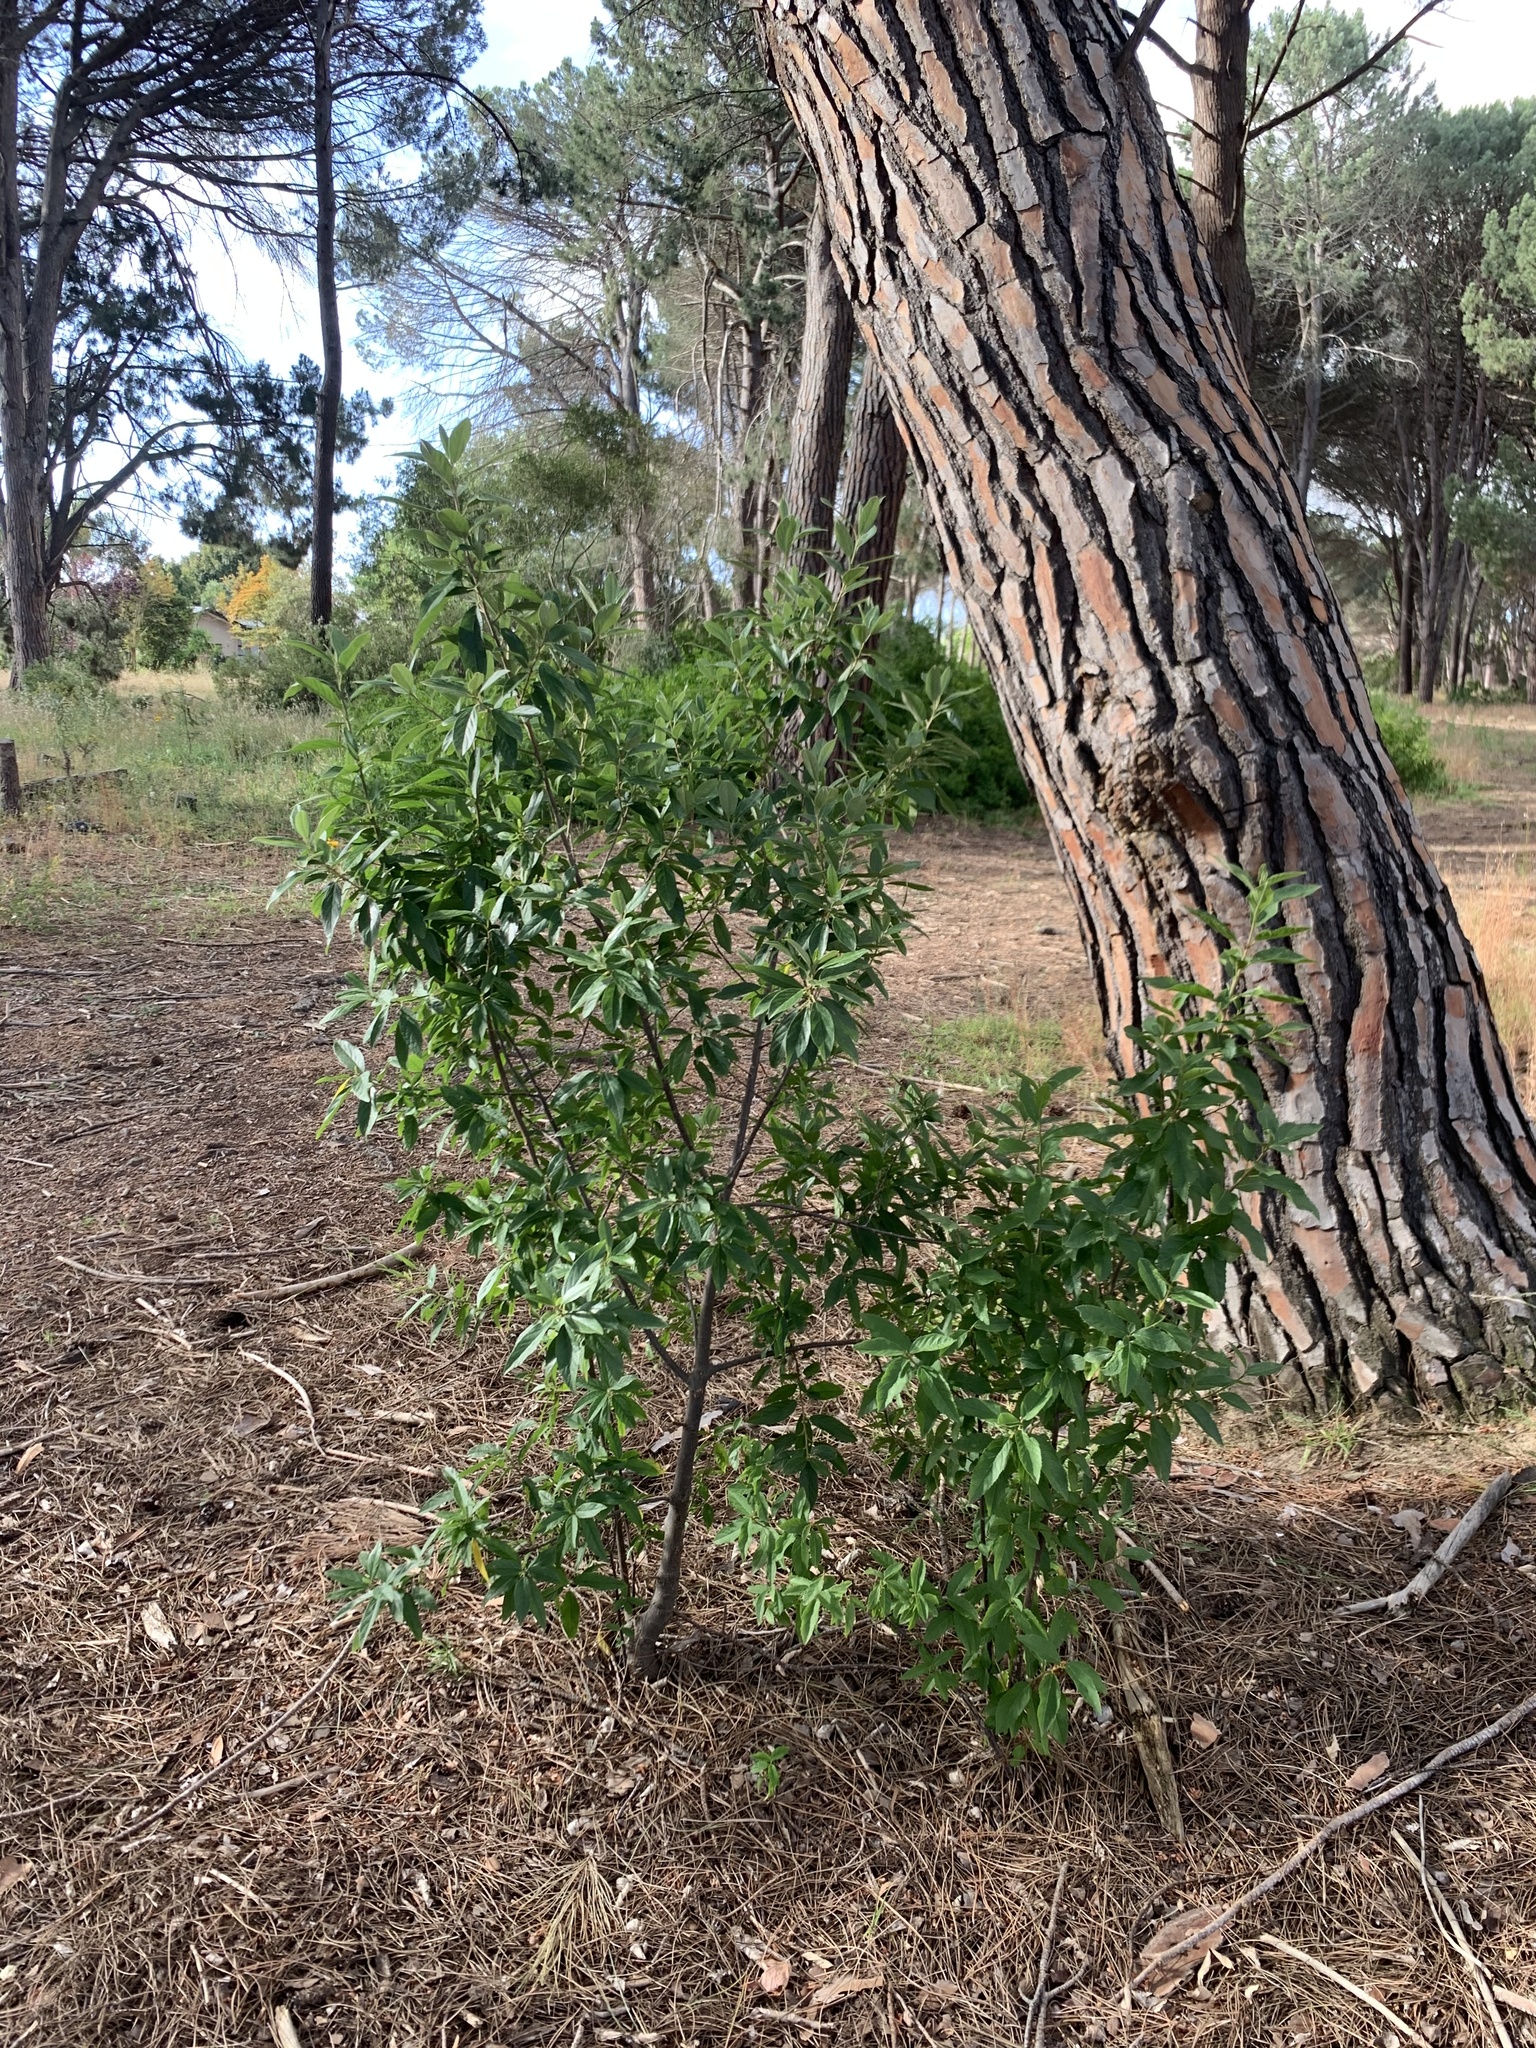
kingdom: Plantae
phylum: Tracheophyta
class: Magnoliopsida
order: Malpighiales
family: Achariaceae
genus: Kiggelaria
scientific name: Kiggelaria africana
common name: Wild peach
